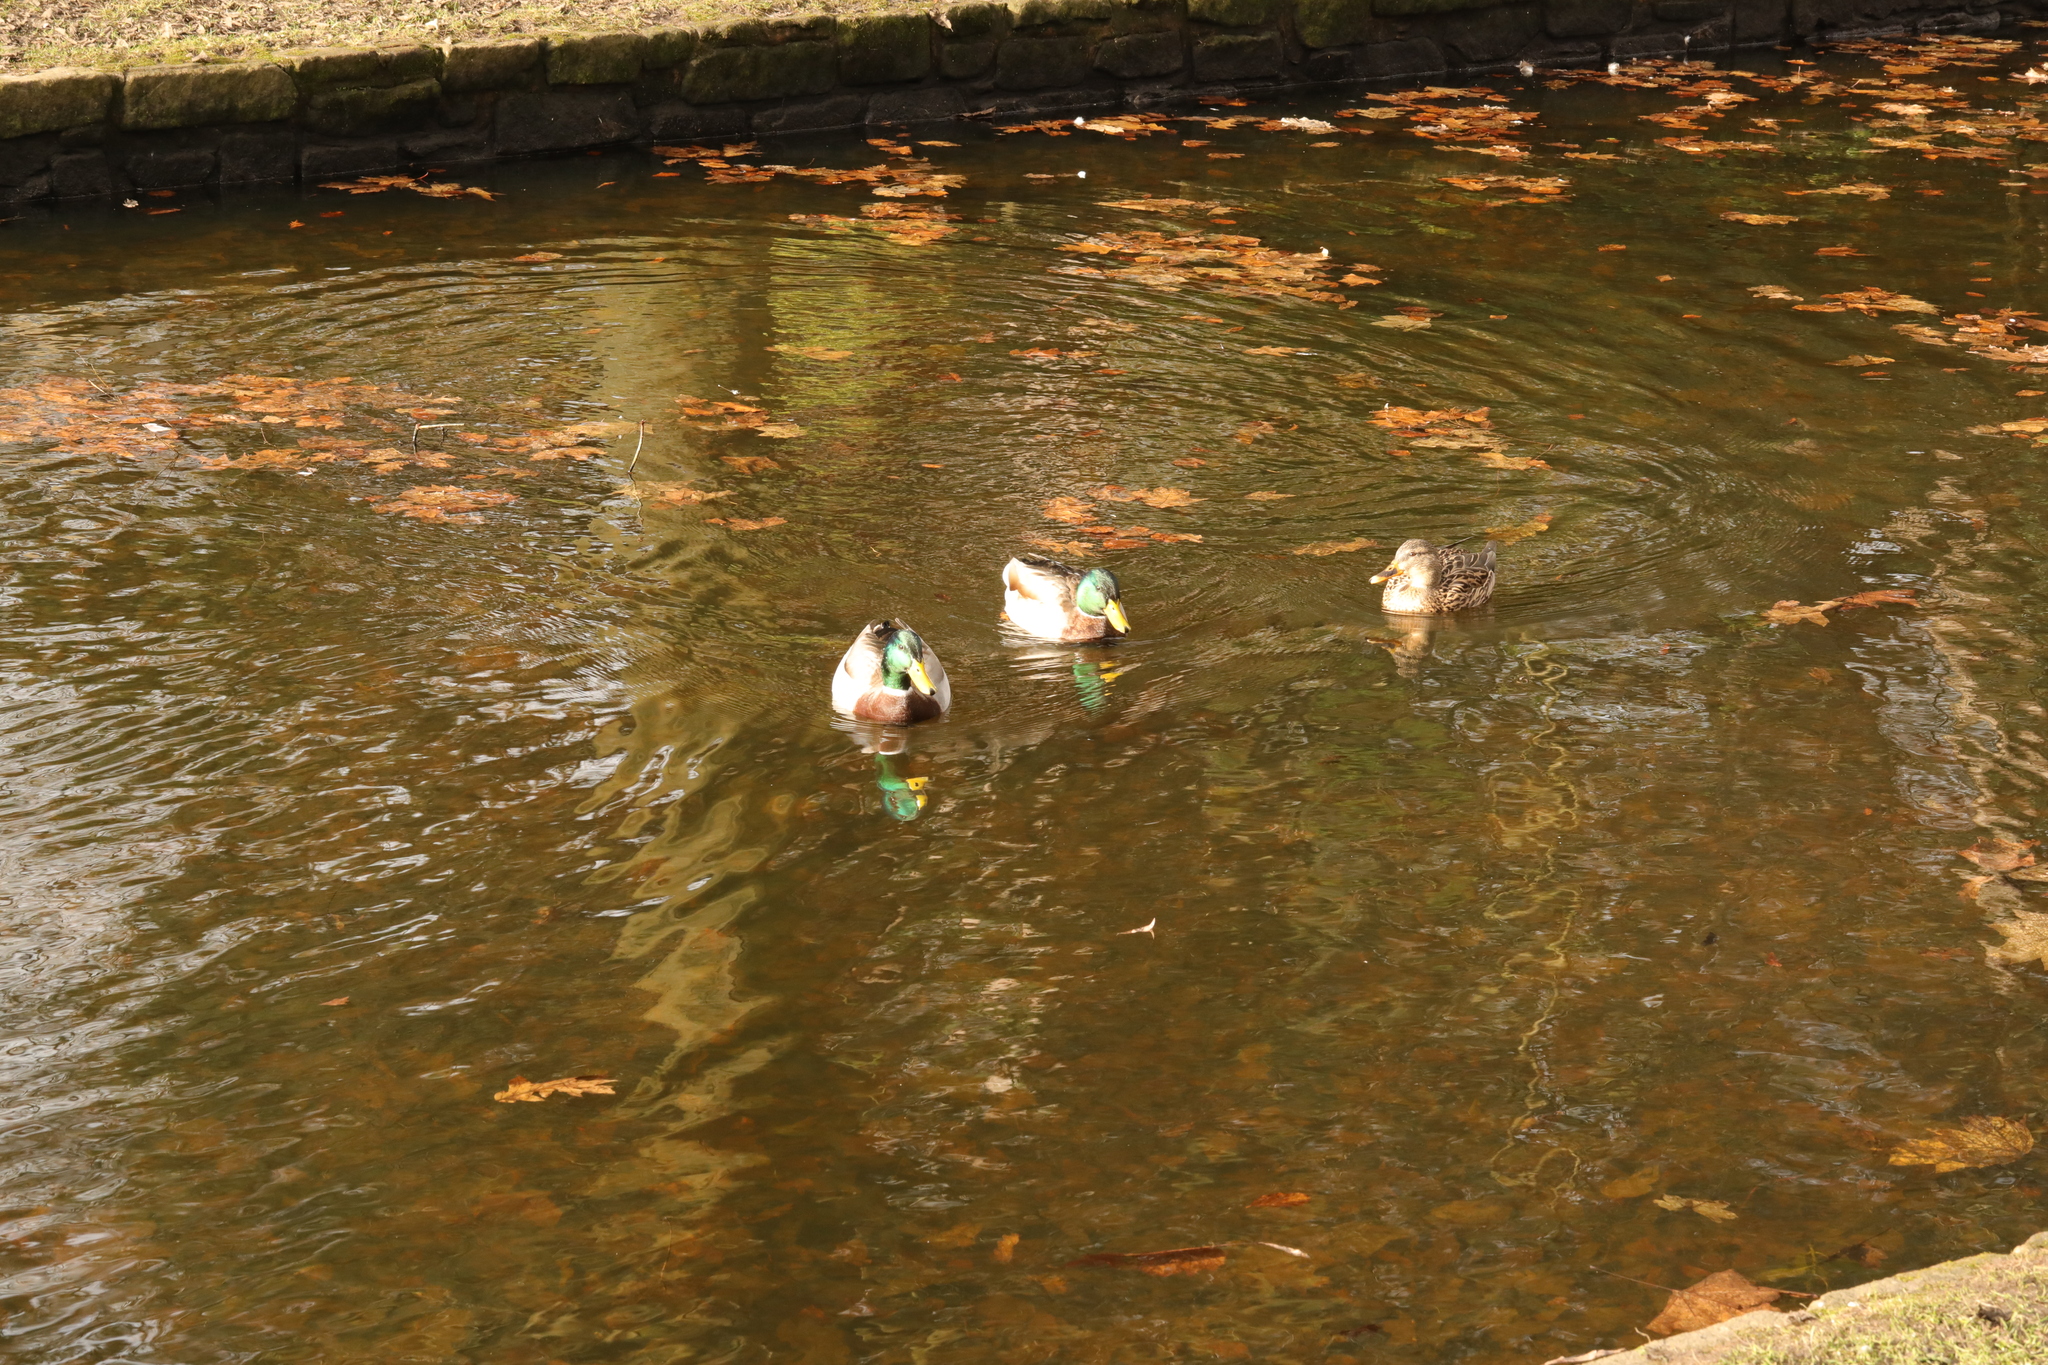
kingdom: Animalia
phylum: Chordata
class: Aves
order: Anseriformes
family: Anatidae
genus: Anas
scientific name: Anas platyrhynchos
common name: Mallard
